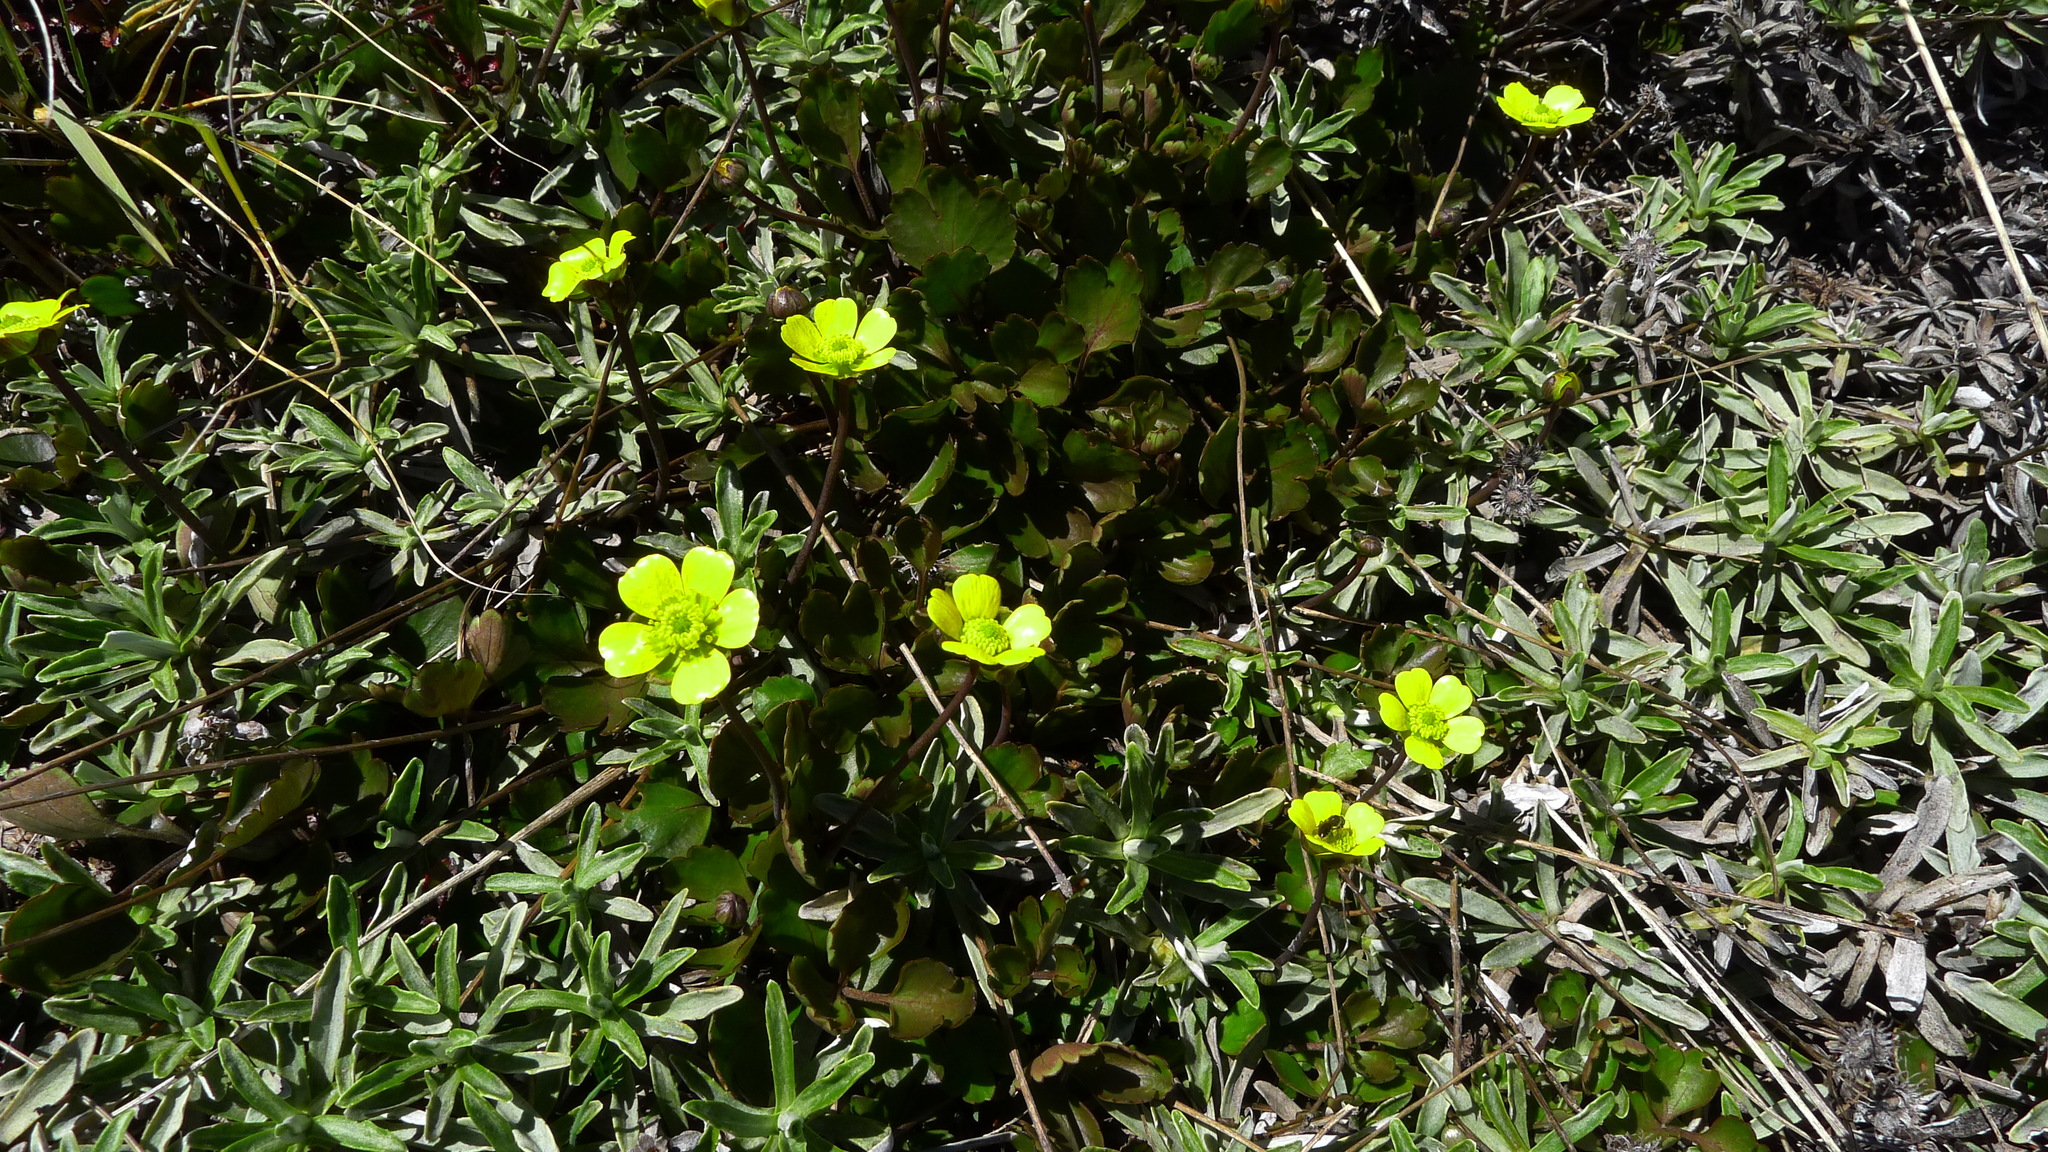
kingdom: Plantae
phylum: Tracheophyta
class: Magnoliopsida
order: Ranunculales
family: Ranunculaceae
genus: Ranunculus
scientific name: Ranunculus enysii
